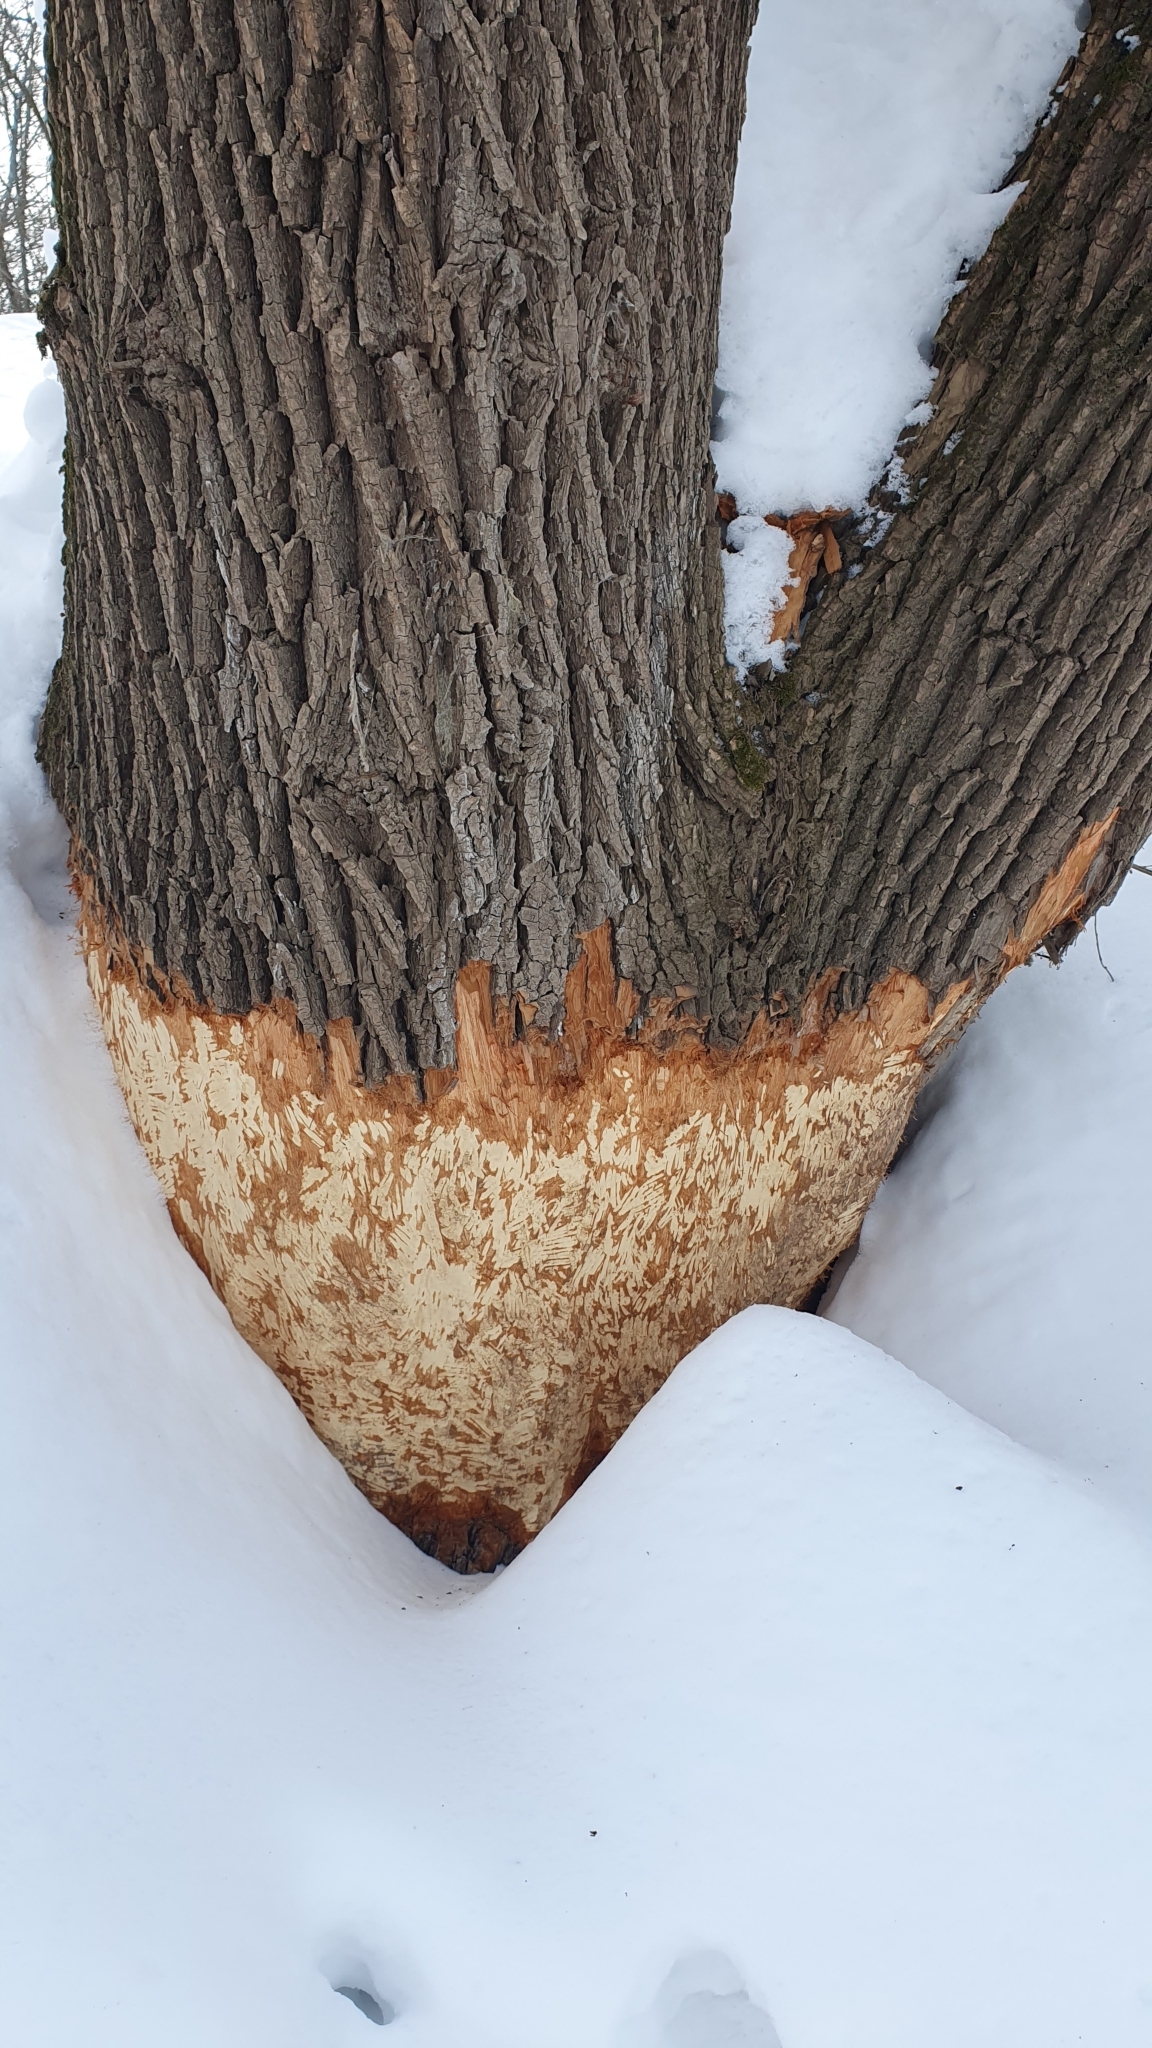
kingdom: Animalia
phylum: Chordata
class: Mammalia
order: Rodentia
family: Castoridae
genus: Castor
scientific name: Castor fiber
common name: Eurasian beaver
